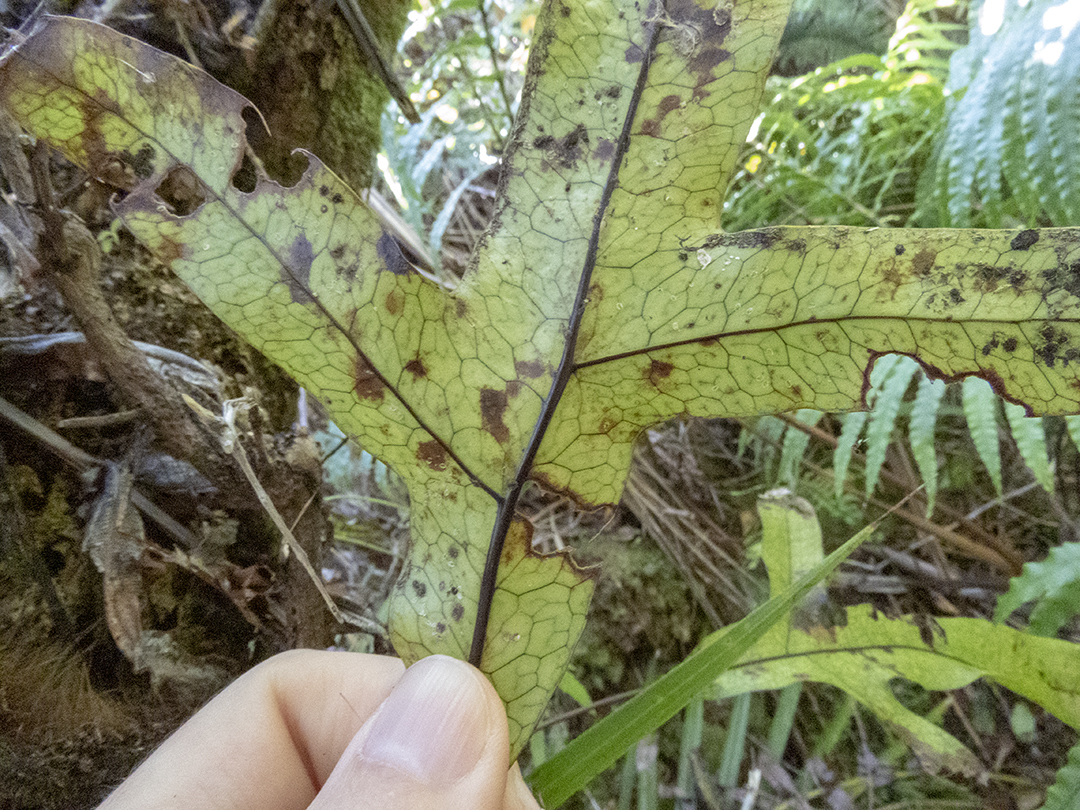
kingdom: Plantae
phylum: Tracheophyta
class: Polypodiopsida
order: Polypodiales
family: Polypodiaceae
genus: Lecanopteris
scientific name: Lecanopteris pustulata
